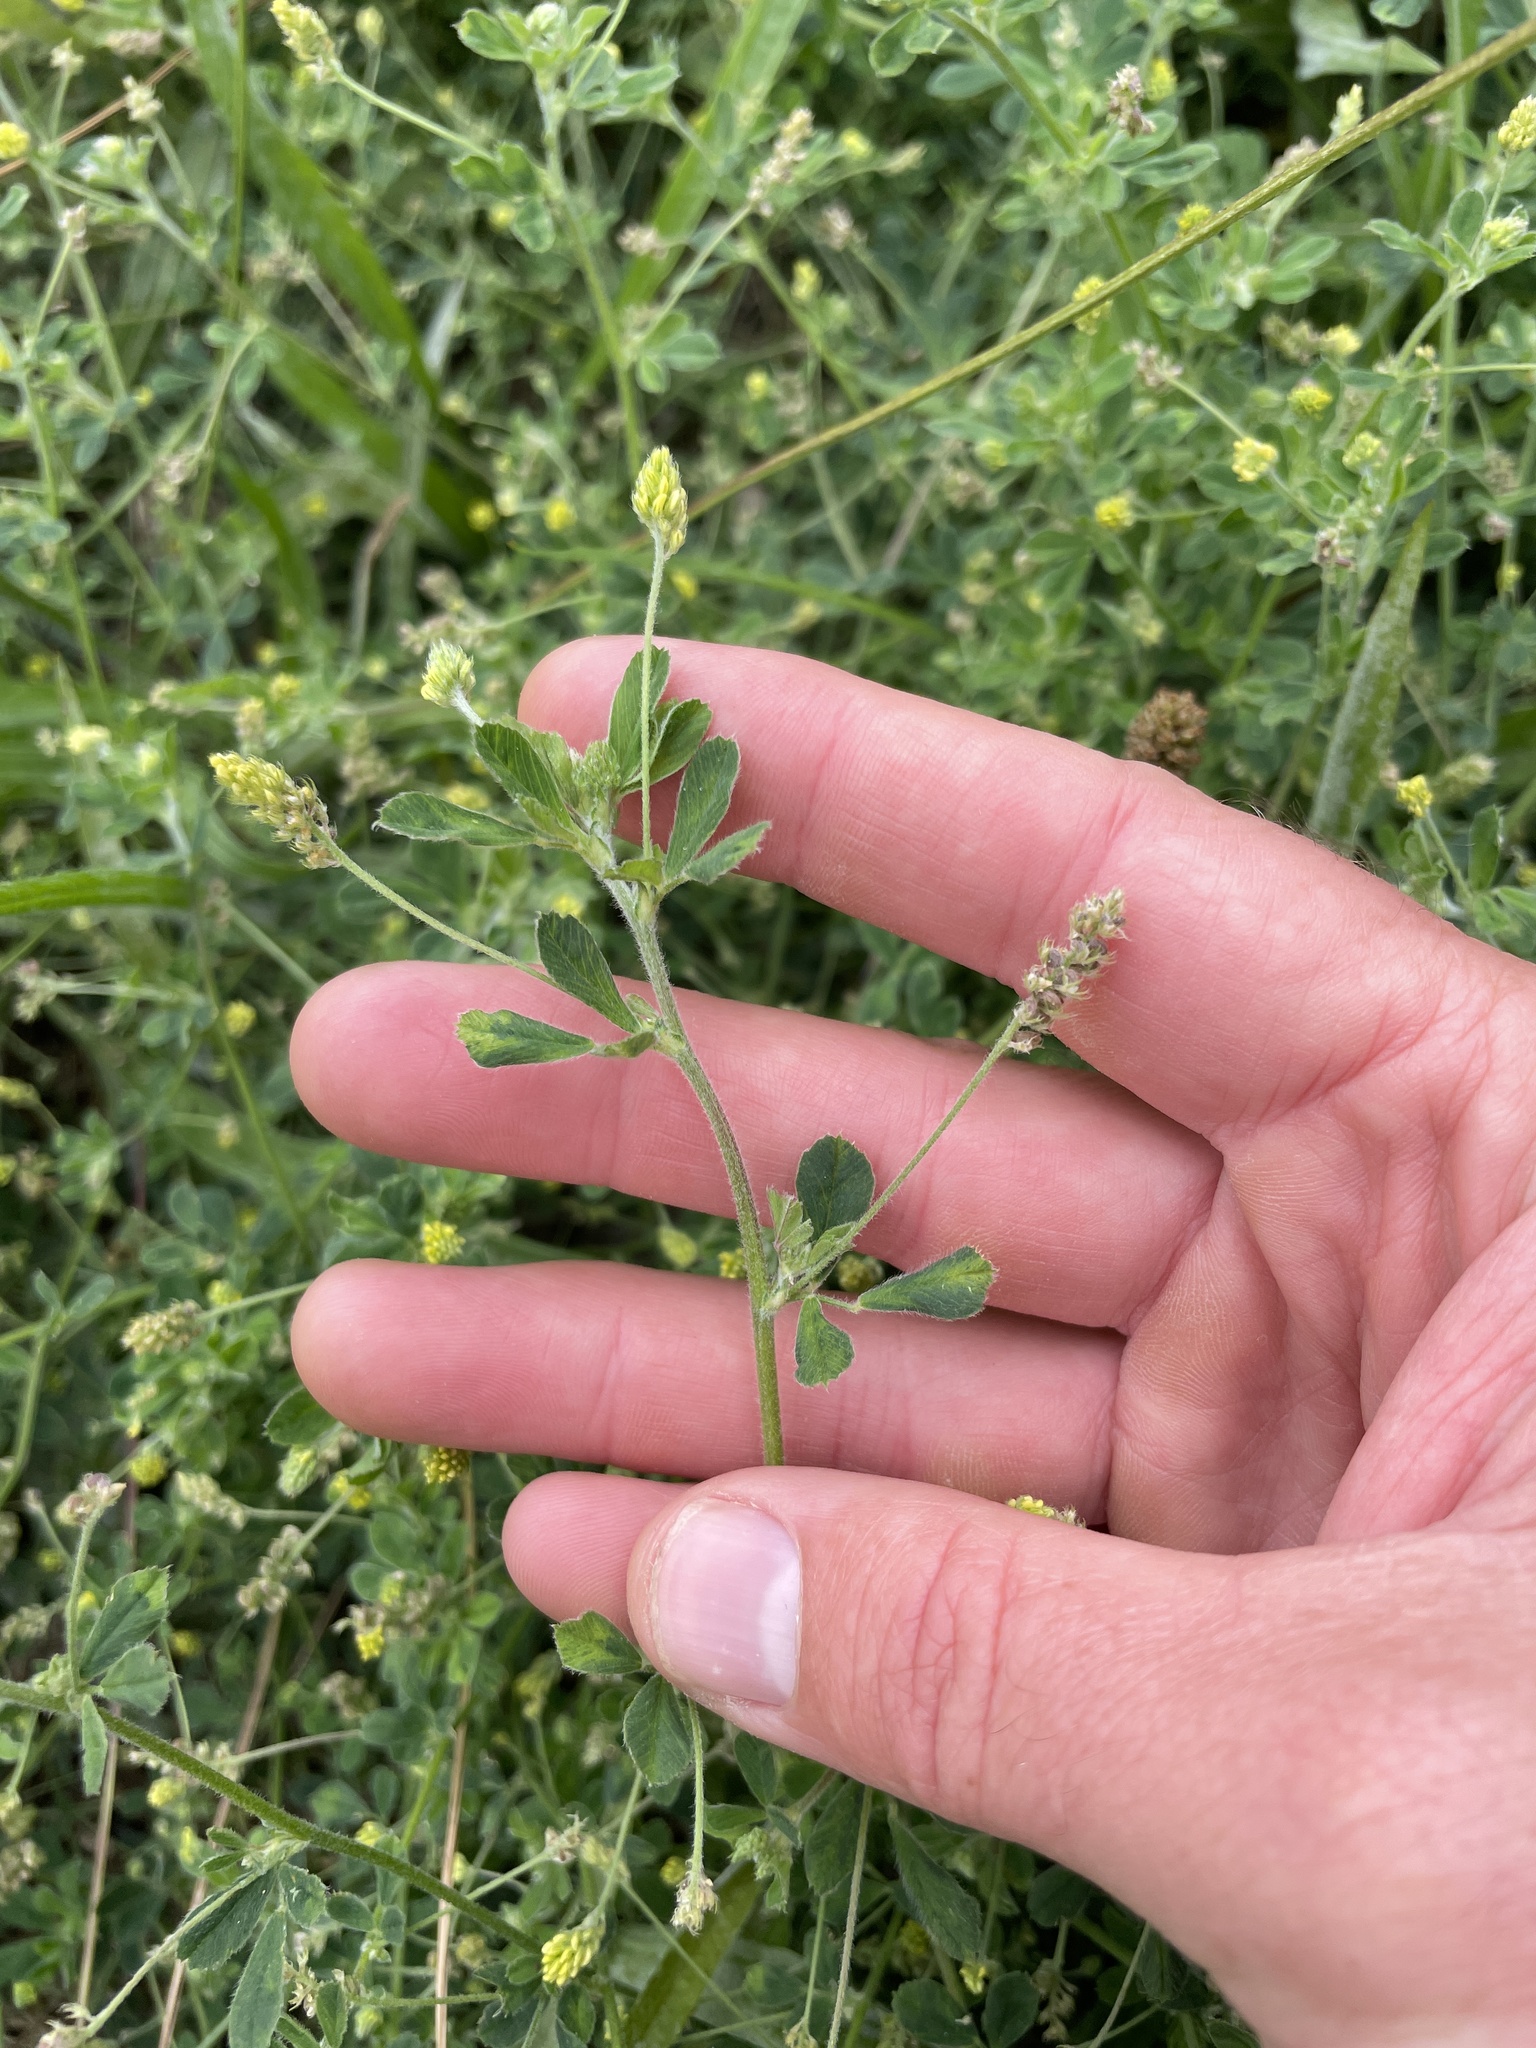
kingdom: Plantae
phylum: Tracheophyta
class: Magnoliopsida
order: Fabales
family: Fabaceae
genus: Medicago
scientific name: Medicago lupulina
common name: Black medick
